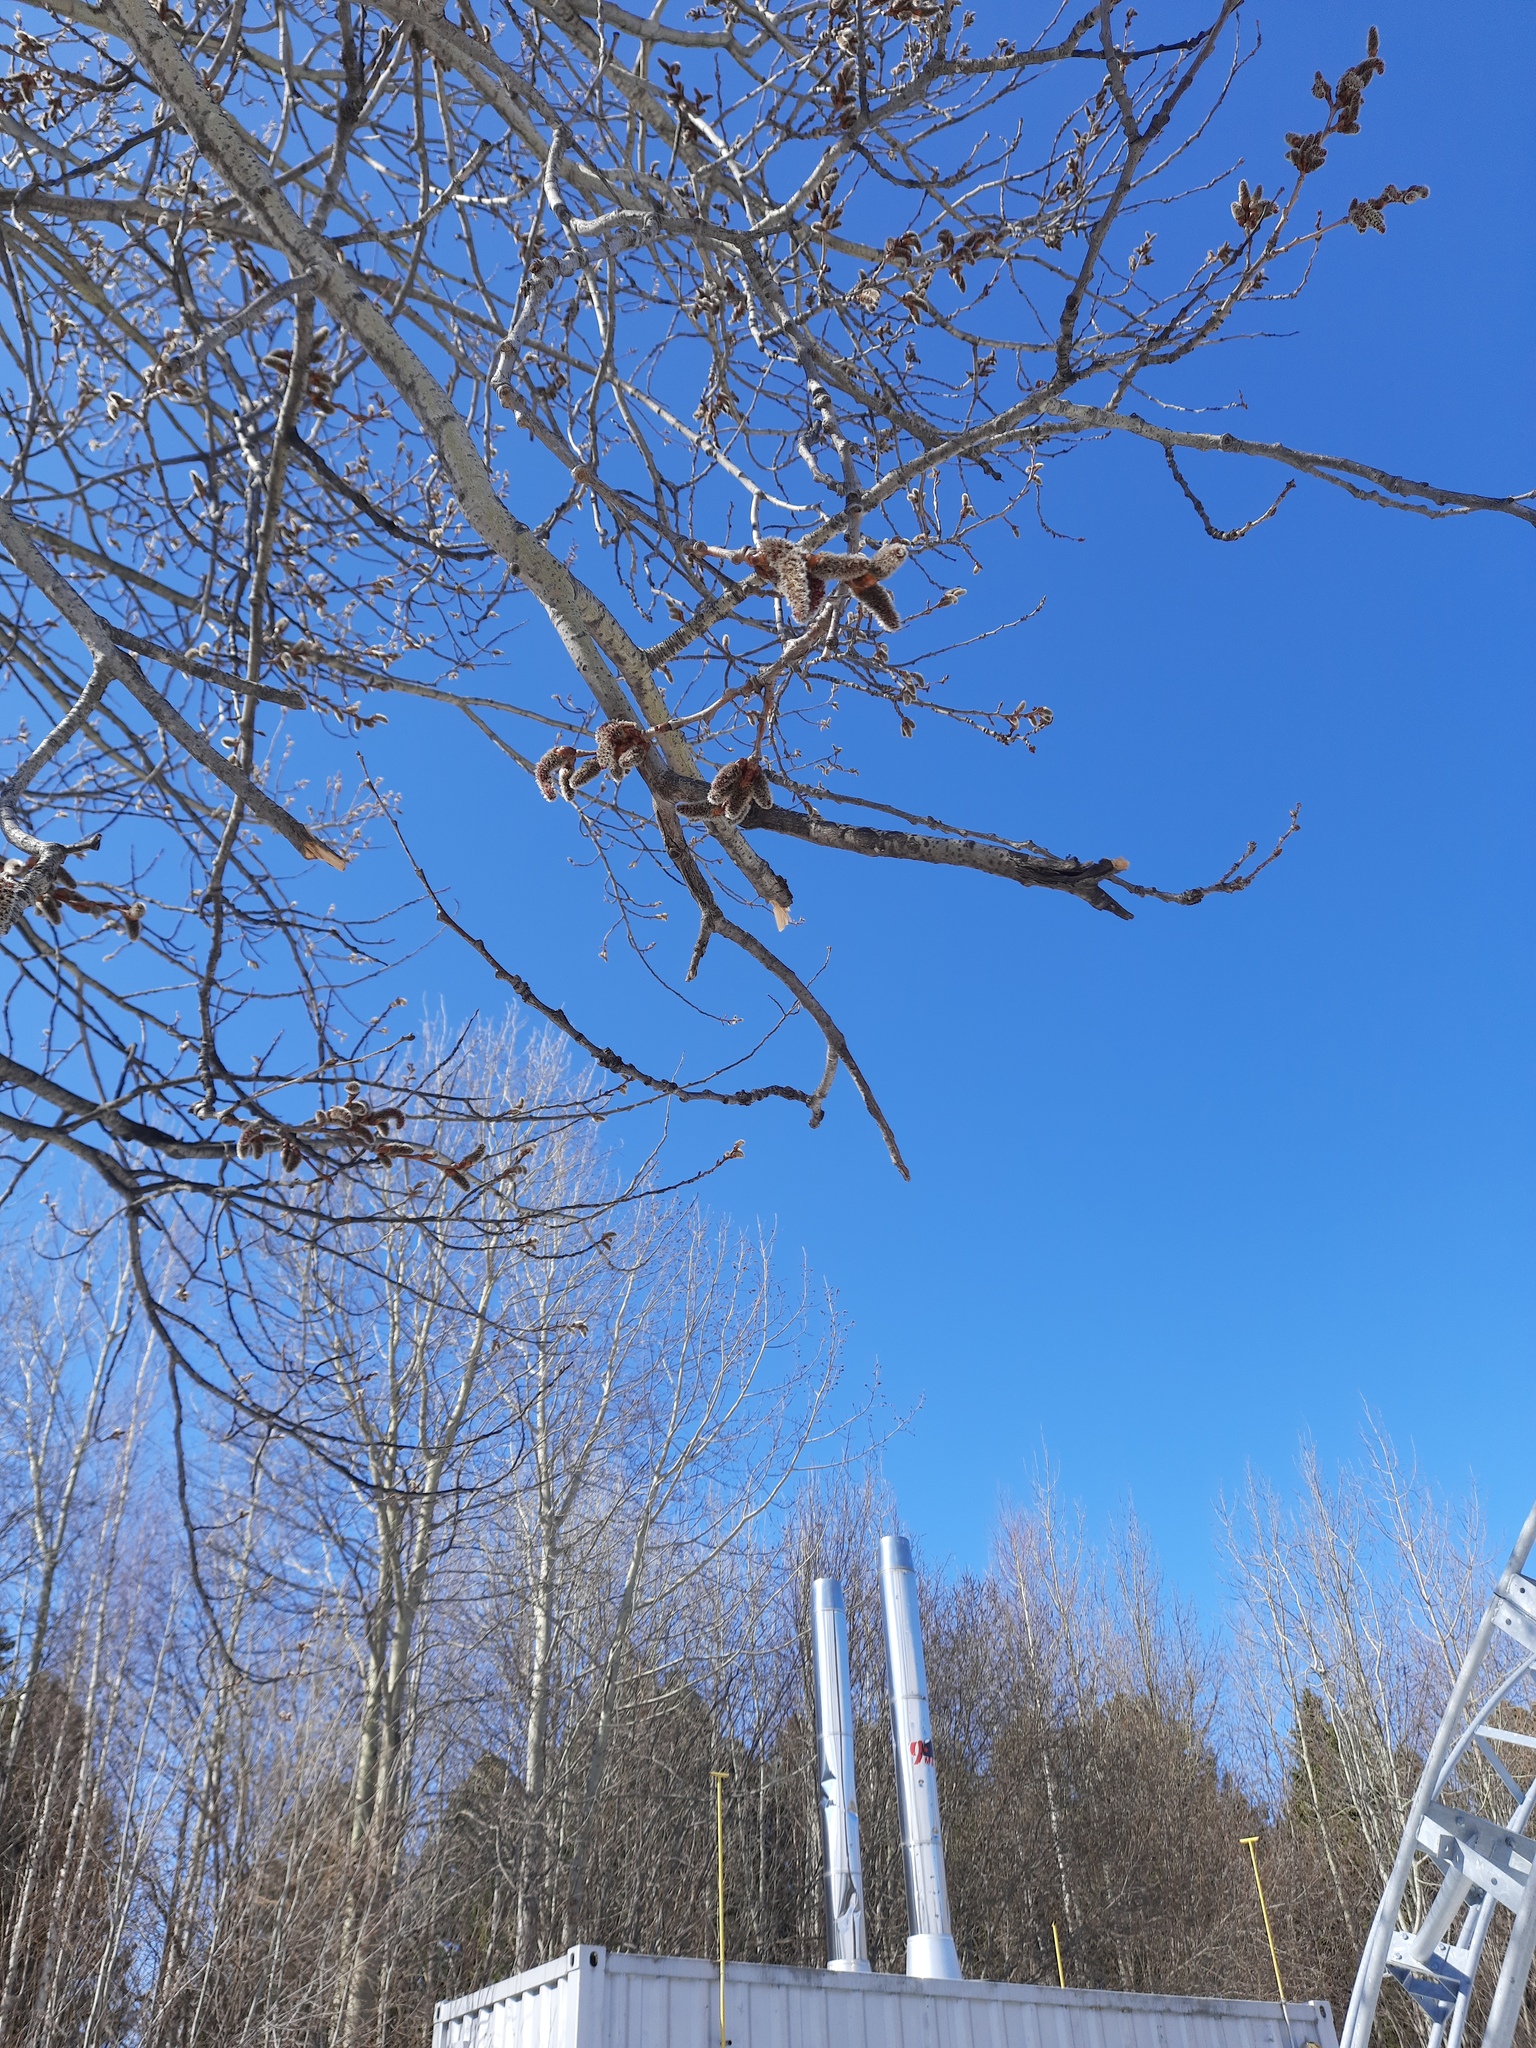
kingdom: Plantae
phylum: Tracheophyta
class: Magnoliopsida
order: Malpighiales
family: Salicaceae
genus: Populus
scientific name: Populus tremula
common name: European aspen
